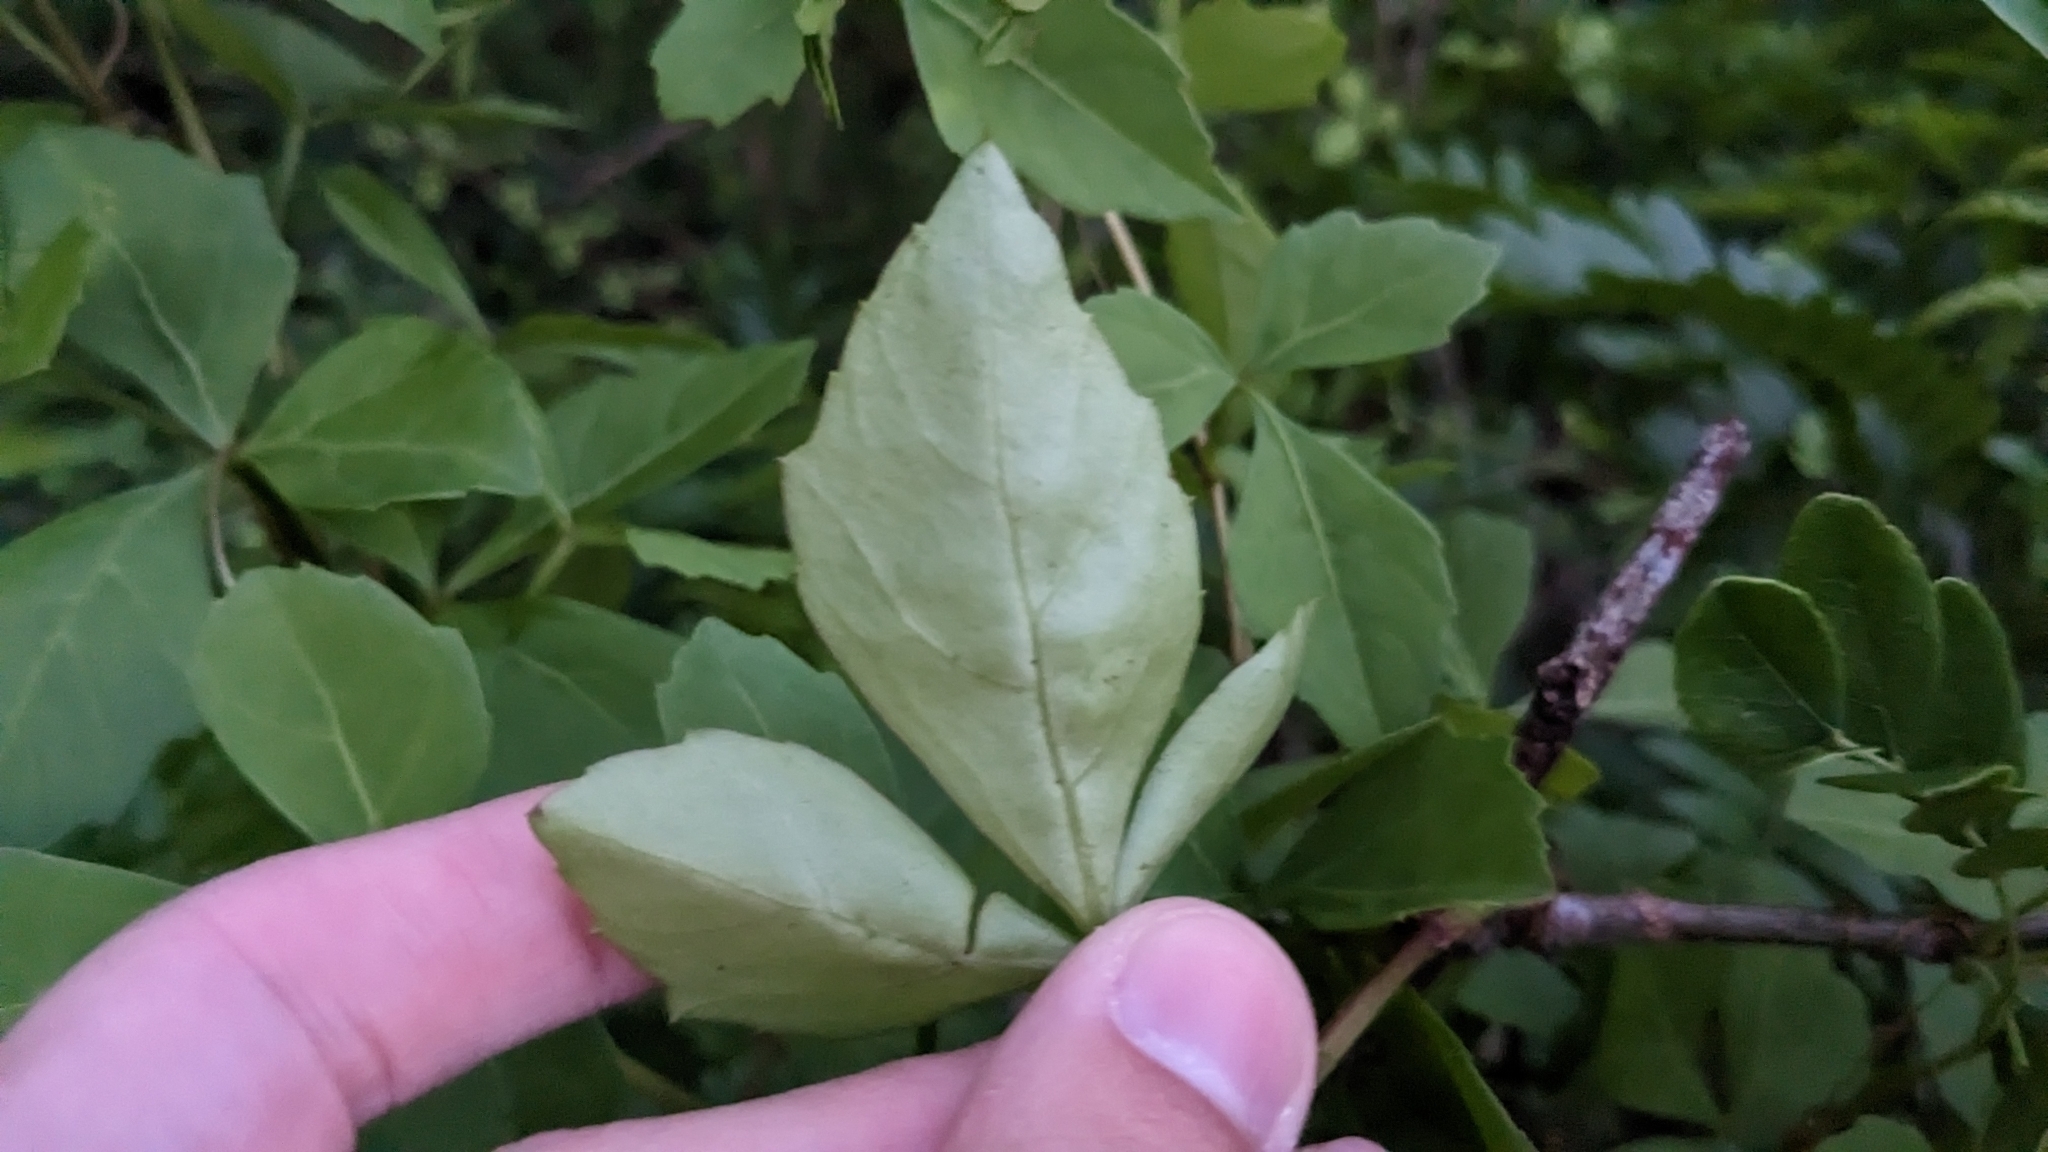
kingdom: Plantae
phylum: Tracheophyta
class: Magnoliopsida
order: Vitales
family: Vitaceae
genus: Cissus
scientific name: Cissus trifoliata
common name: Vine-sorrel
